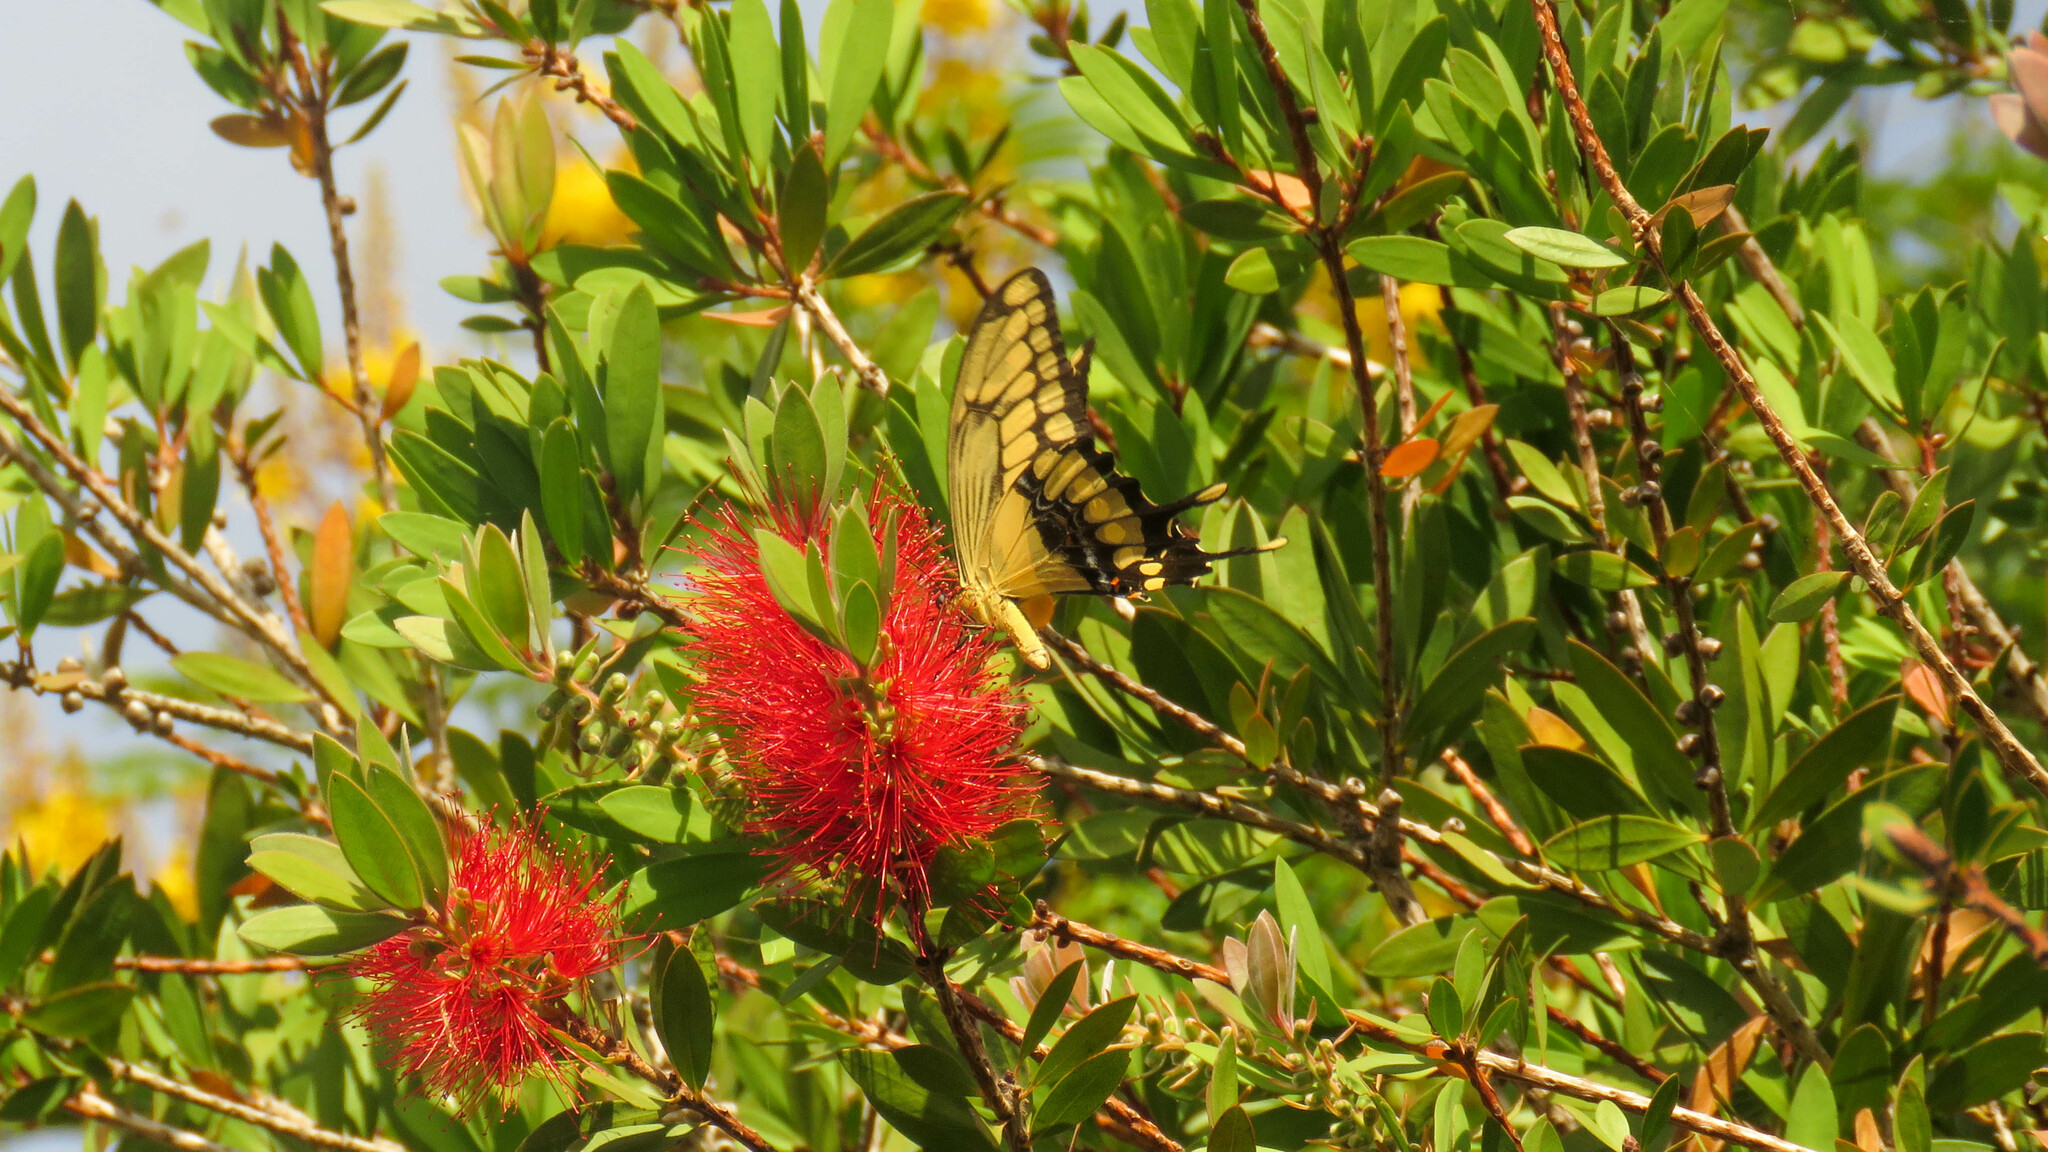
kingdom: Animalia
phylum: Arthropoda
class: Insecta
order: Lepidoptera
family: Papilionidae
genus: Papilio
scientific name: Papilio thoas
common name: King swallowtail
